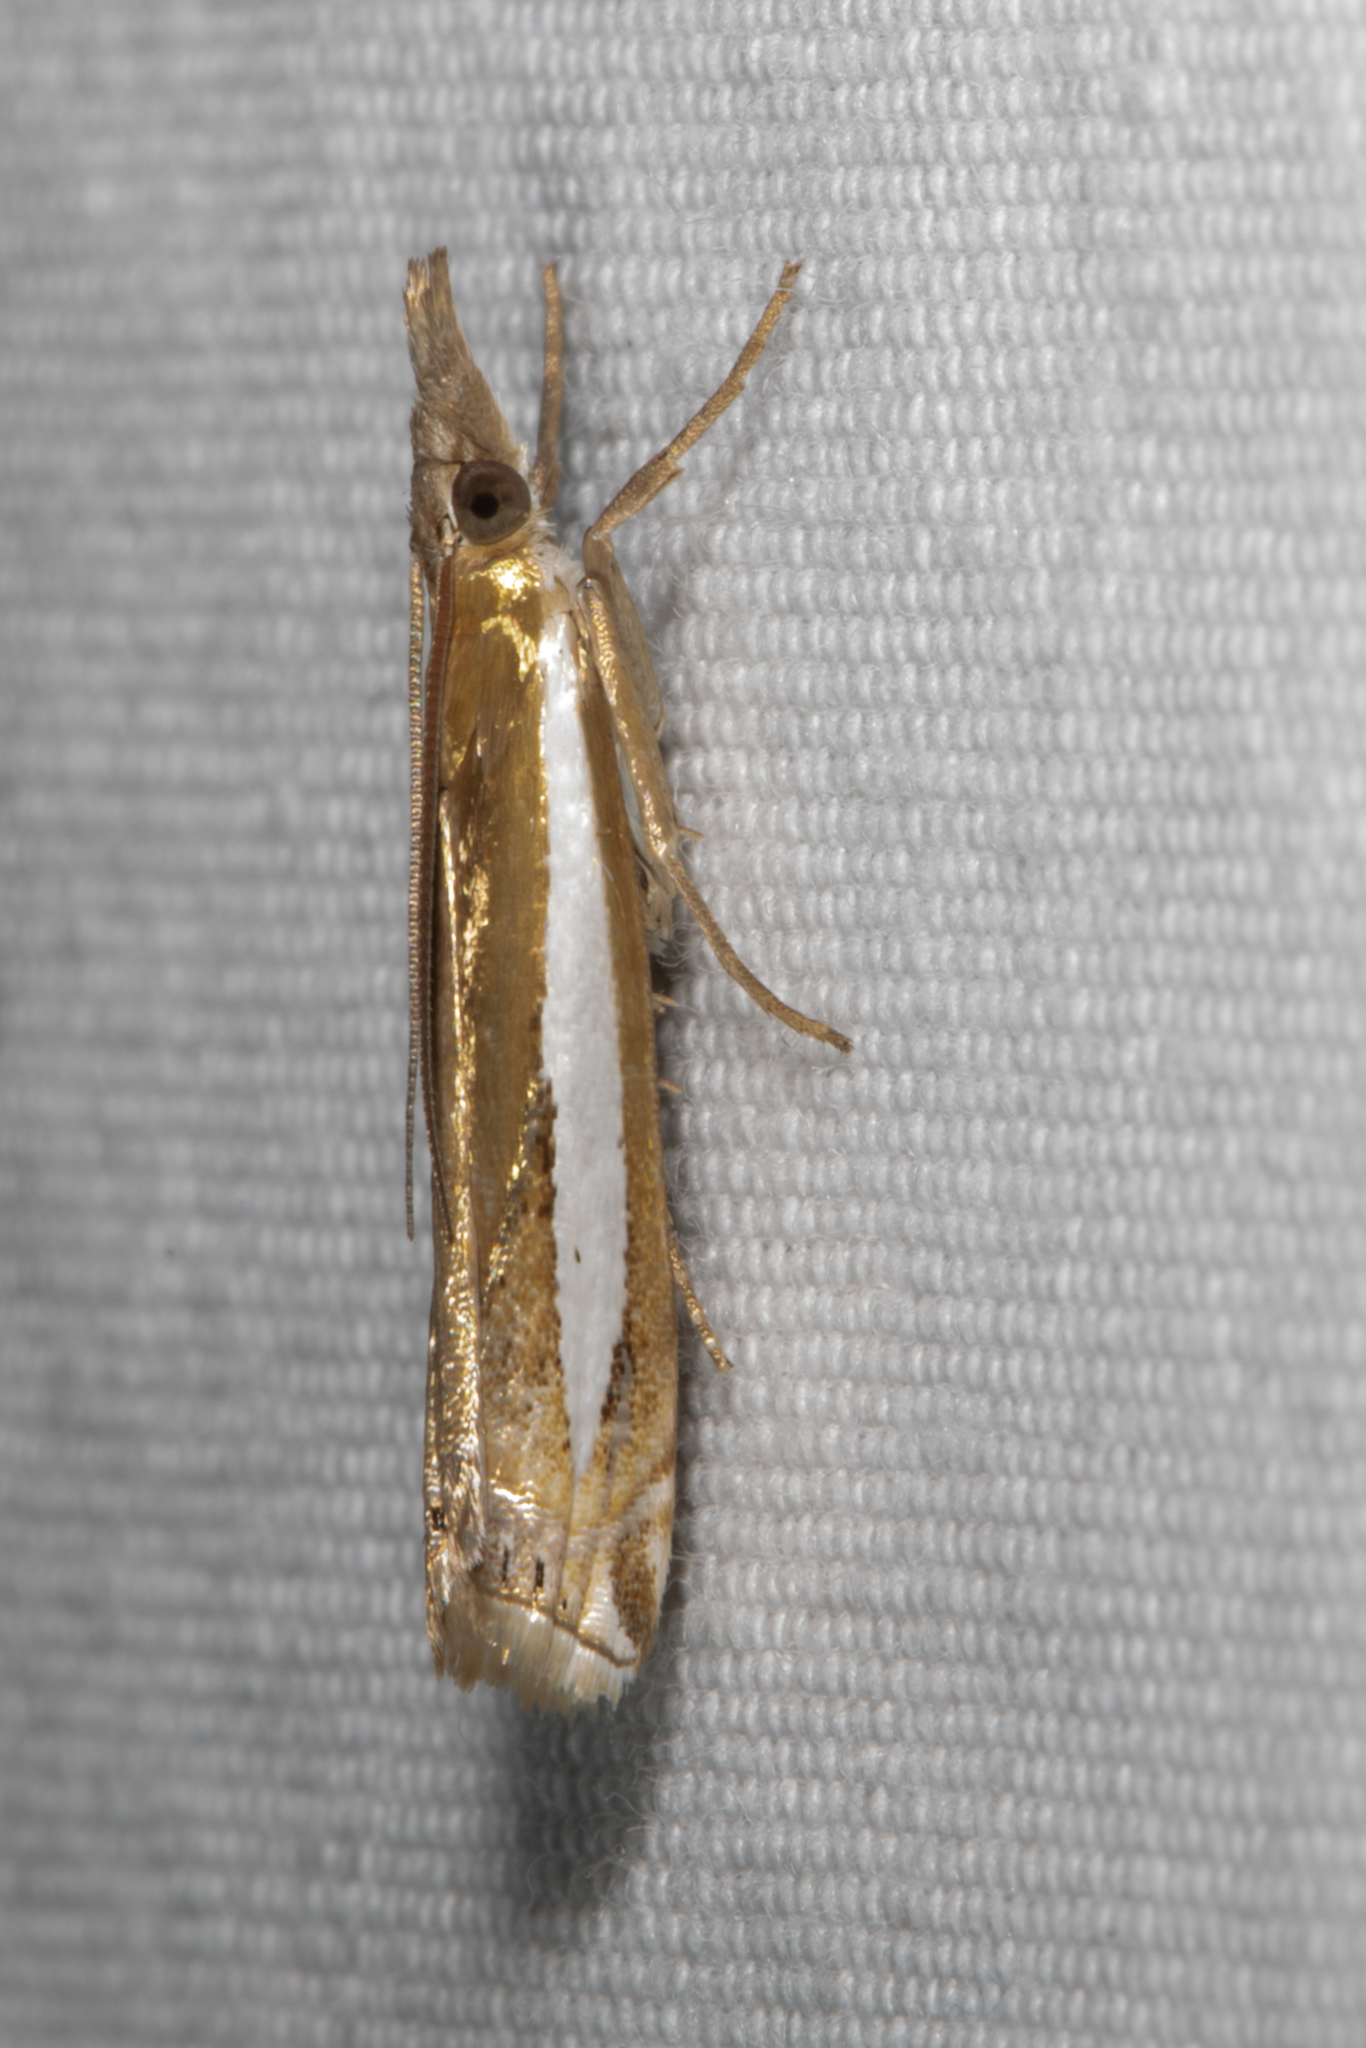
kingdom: Animalia
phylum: Arthropoda
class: Insecta
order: Lepidoptera
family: Crambidae
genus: Crambus
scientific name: Crambus praefectellus
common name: Common grass-veneer
